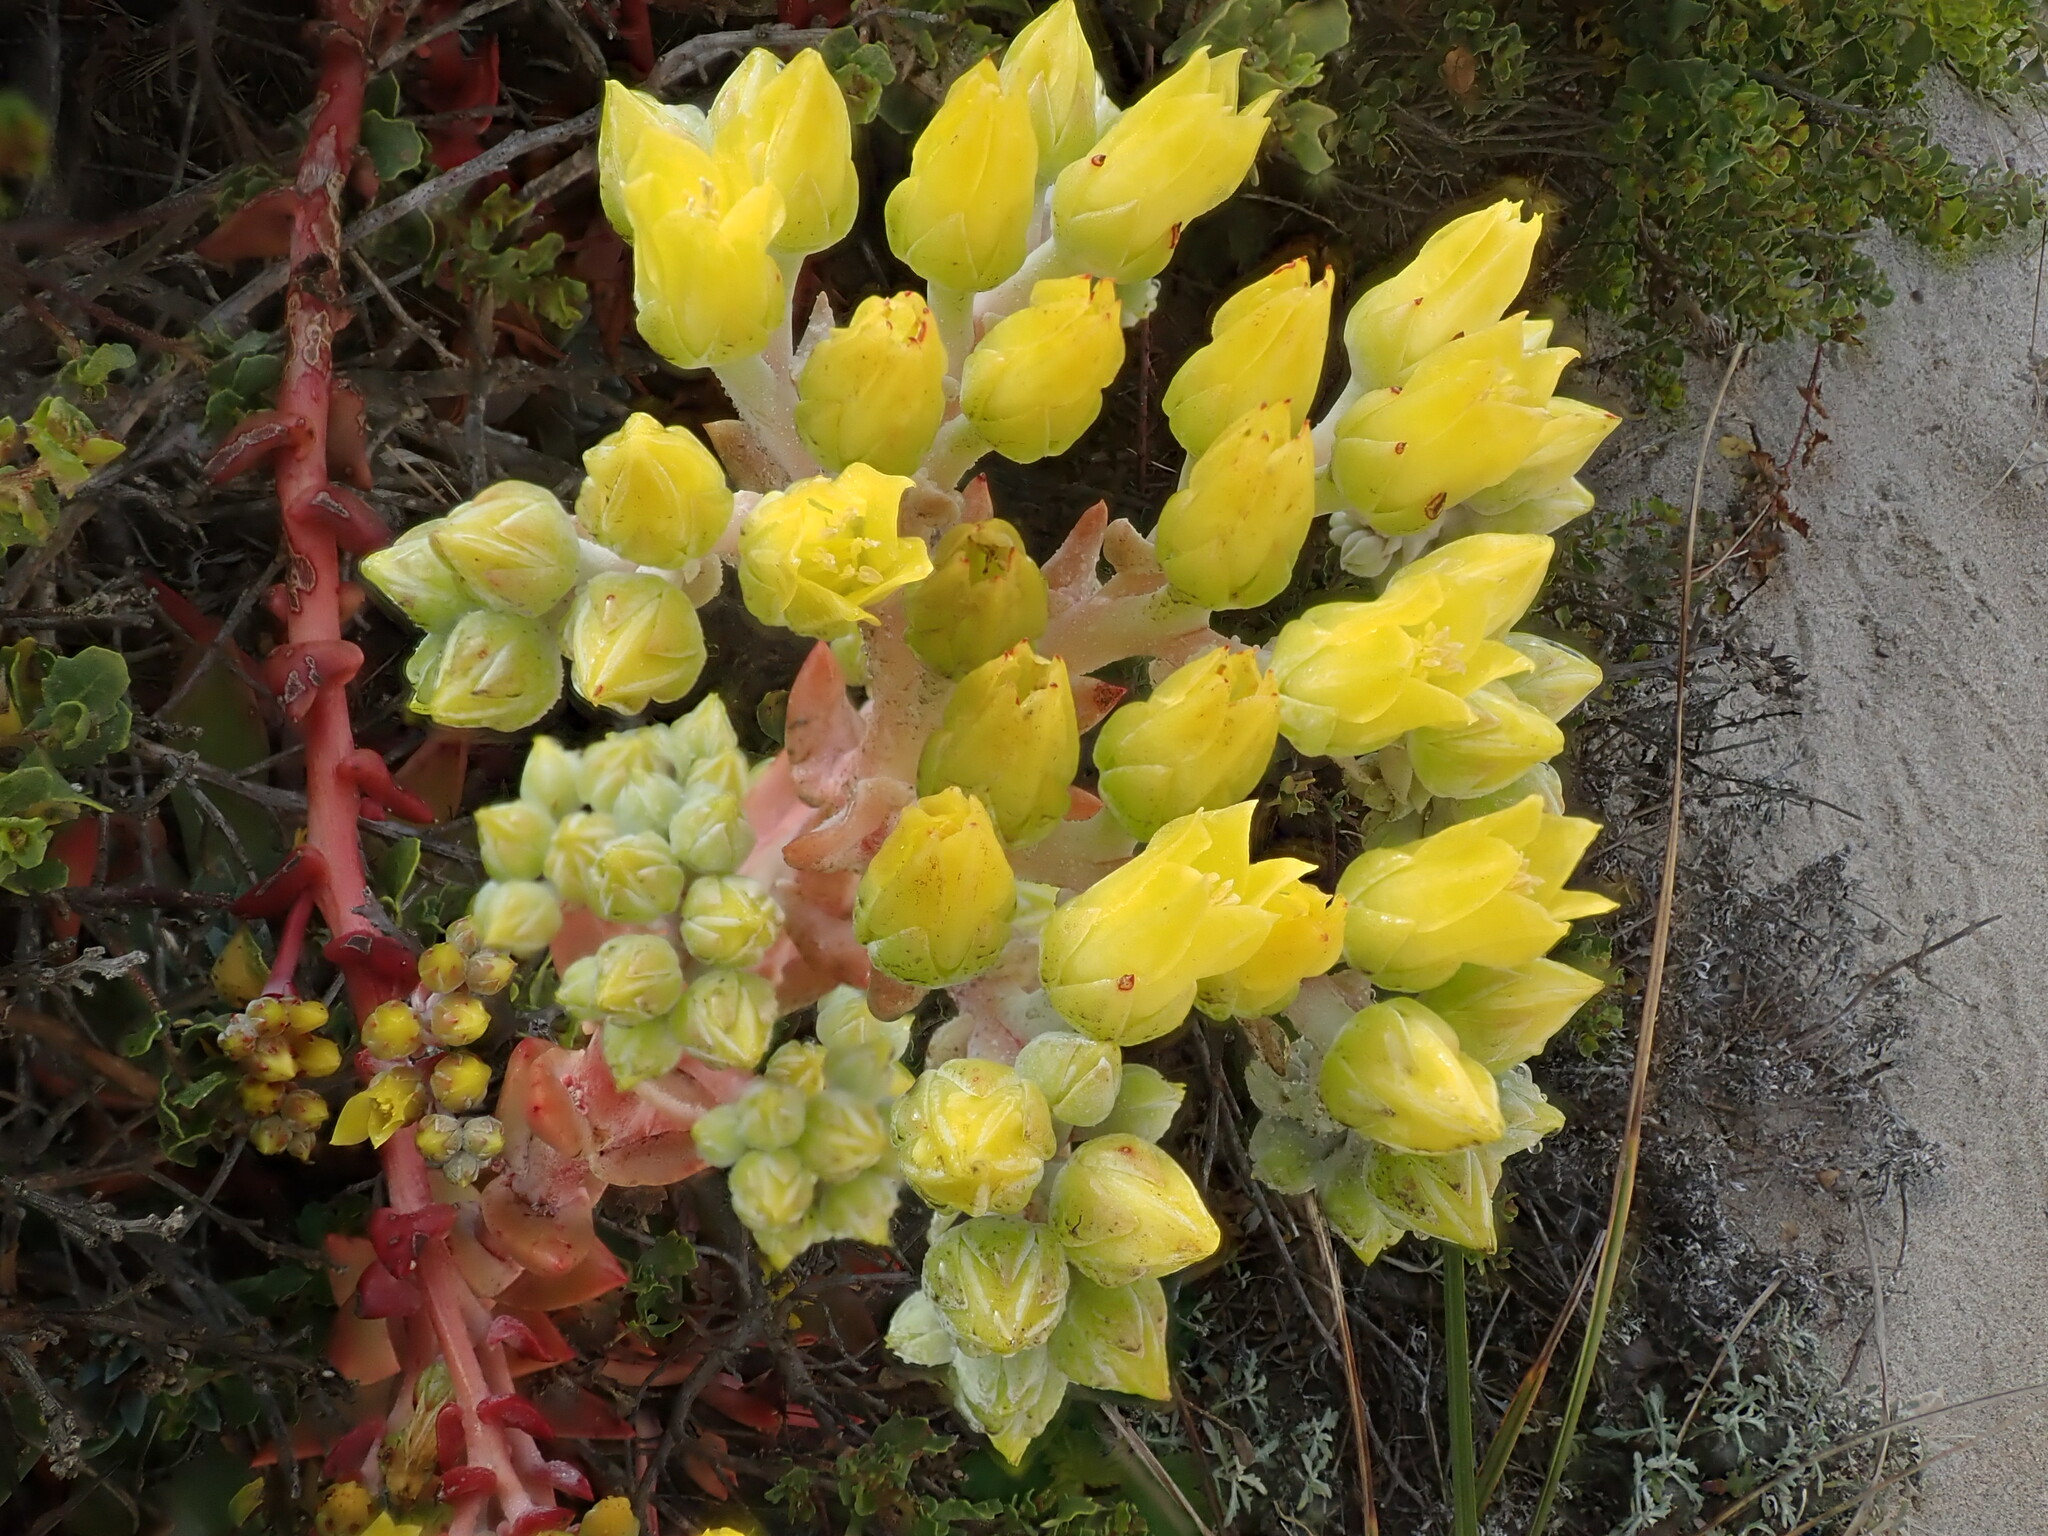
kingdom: Plantae
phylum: Tracheophyta
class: Magnoliopsida
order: Saxifragales
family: Crassulaceae
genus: Dudleya
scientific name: Dudleya caespitosa
